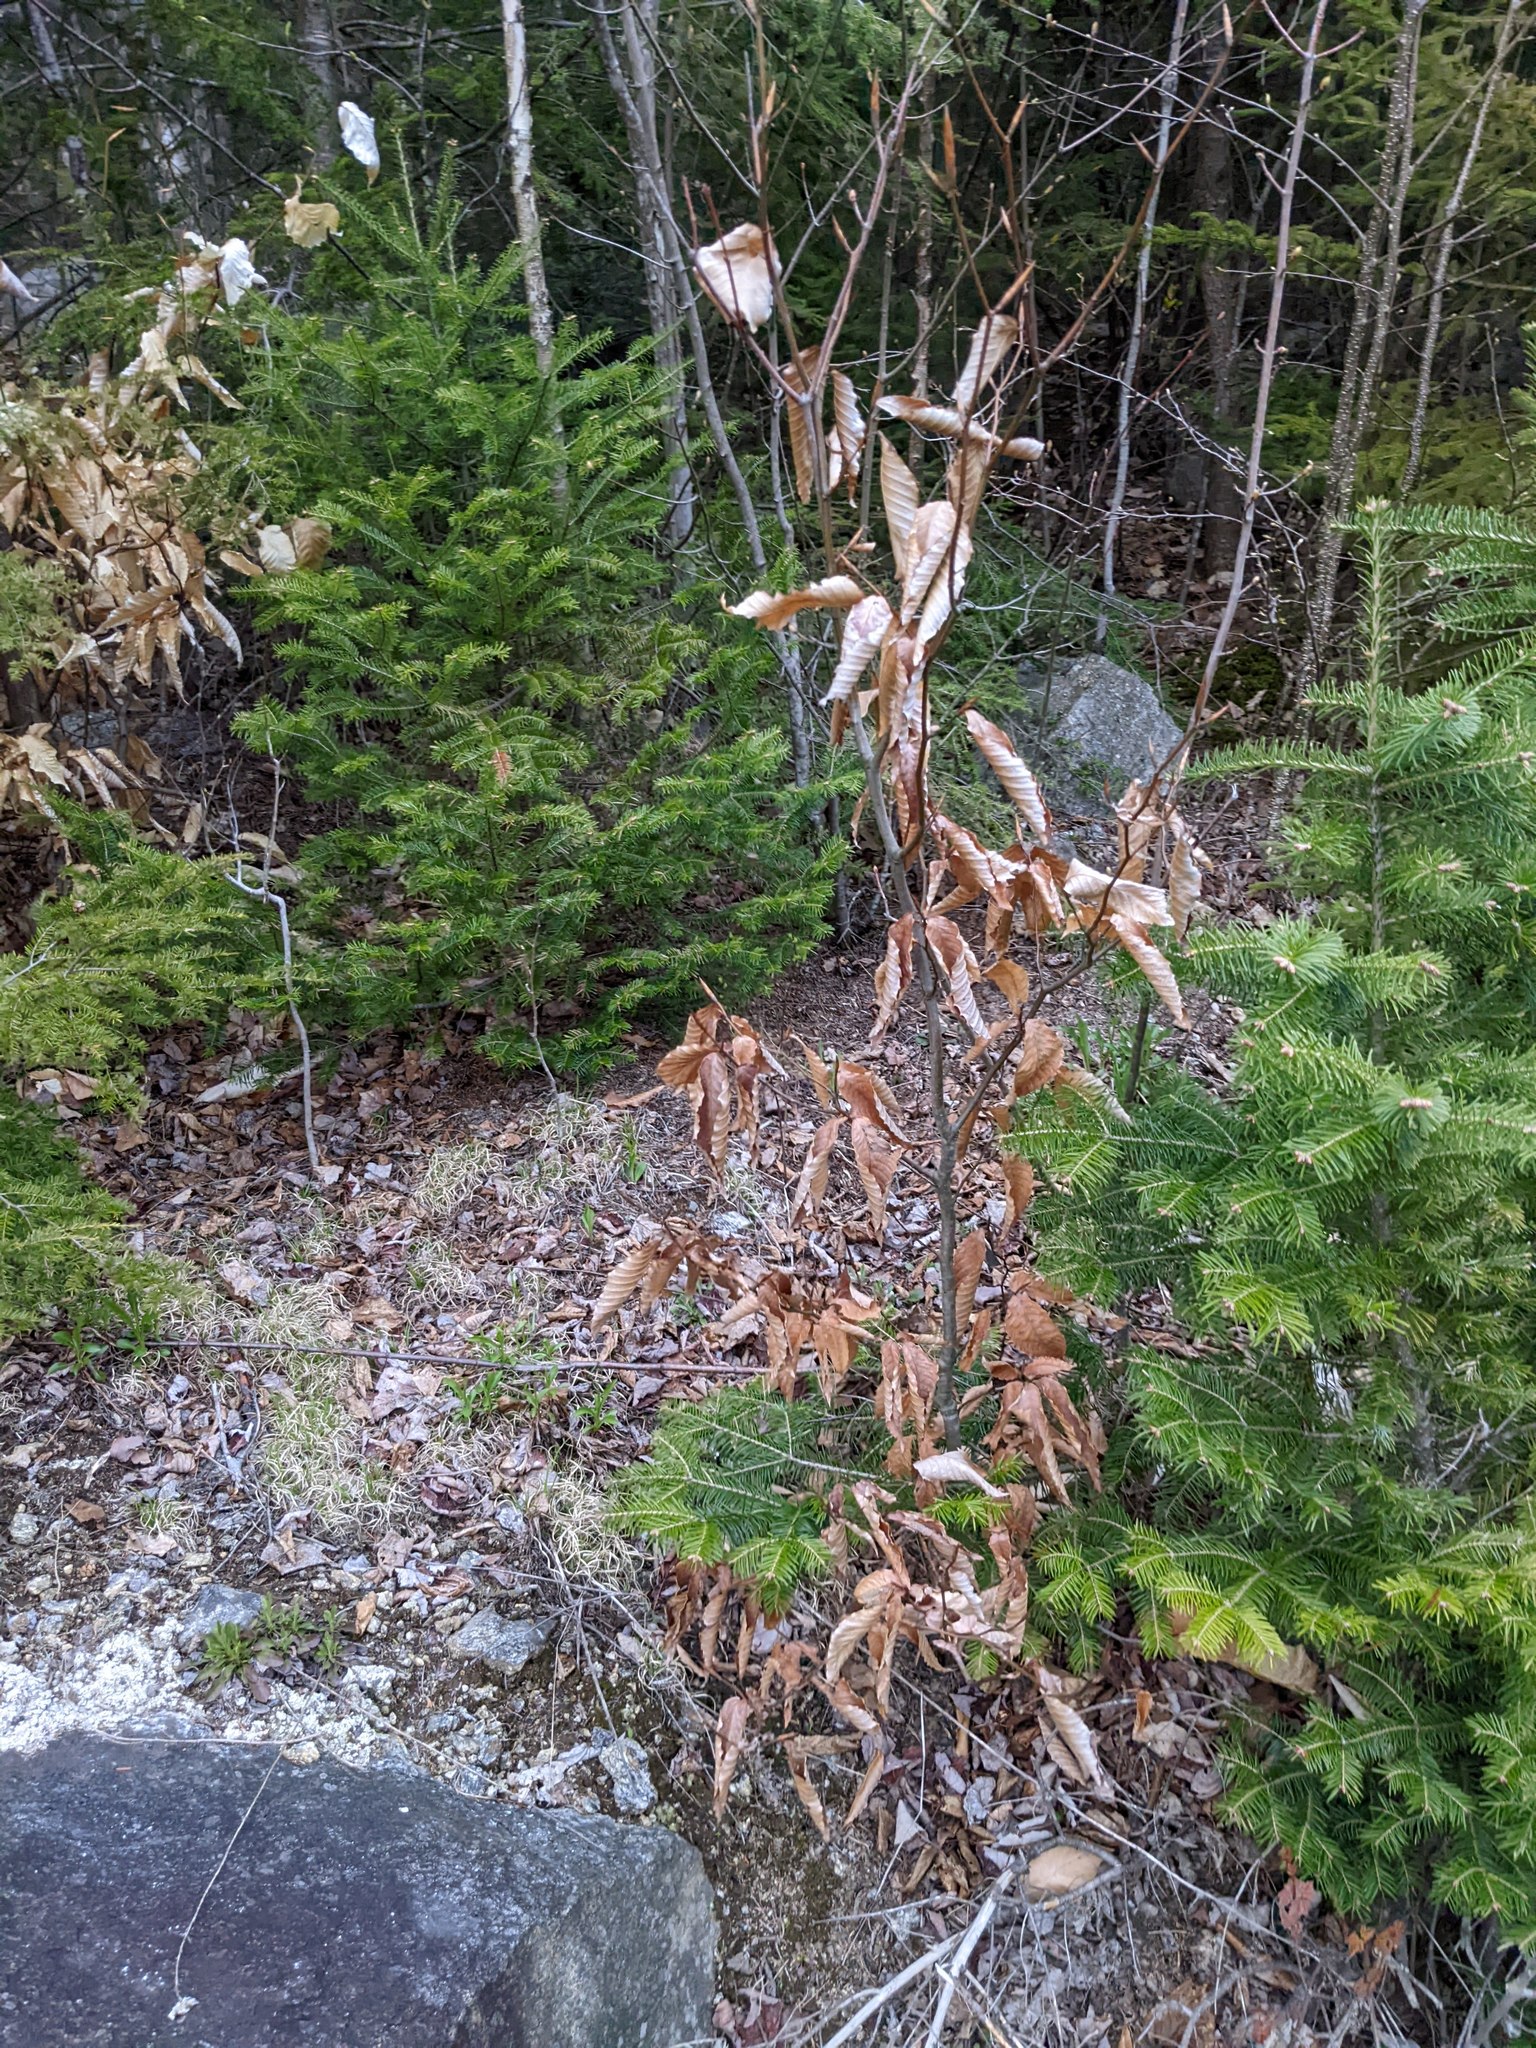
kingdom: Plantae
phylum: Tracheophyta
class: Magnoliopsida
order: Fagales
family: Fagaceae
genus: Fagus
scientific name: Fagus grandifolia
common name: American beech
